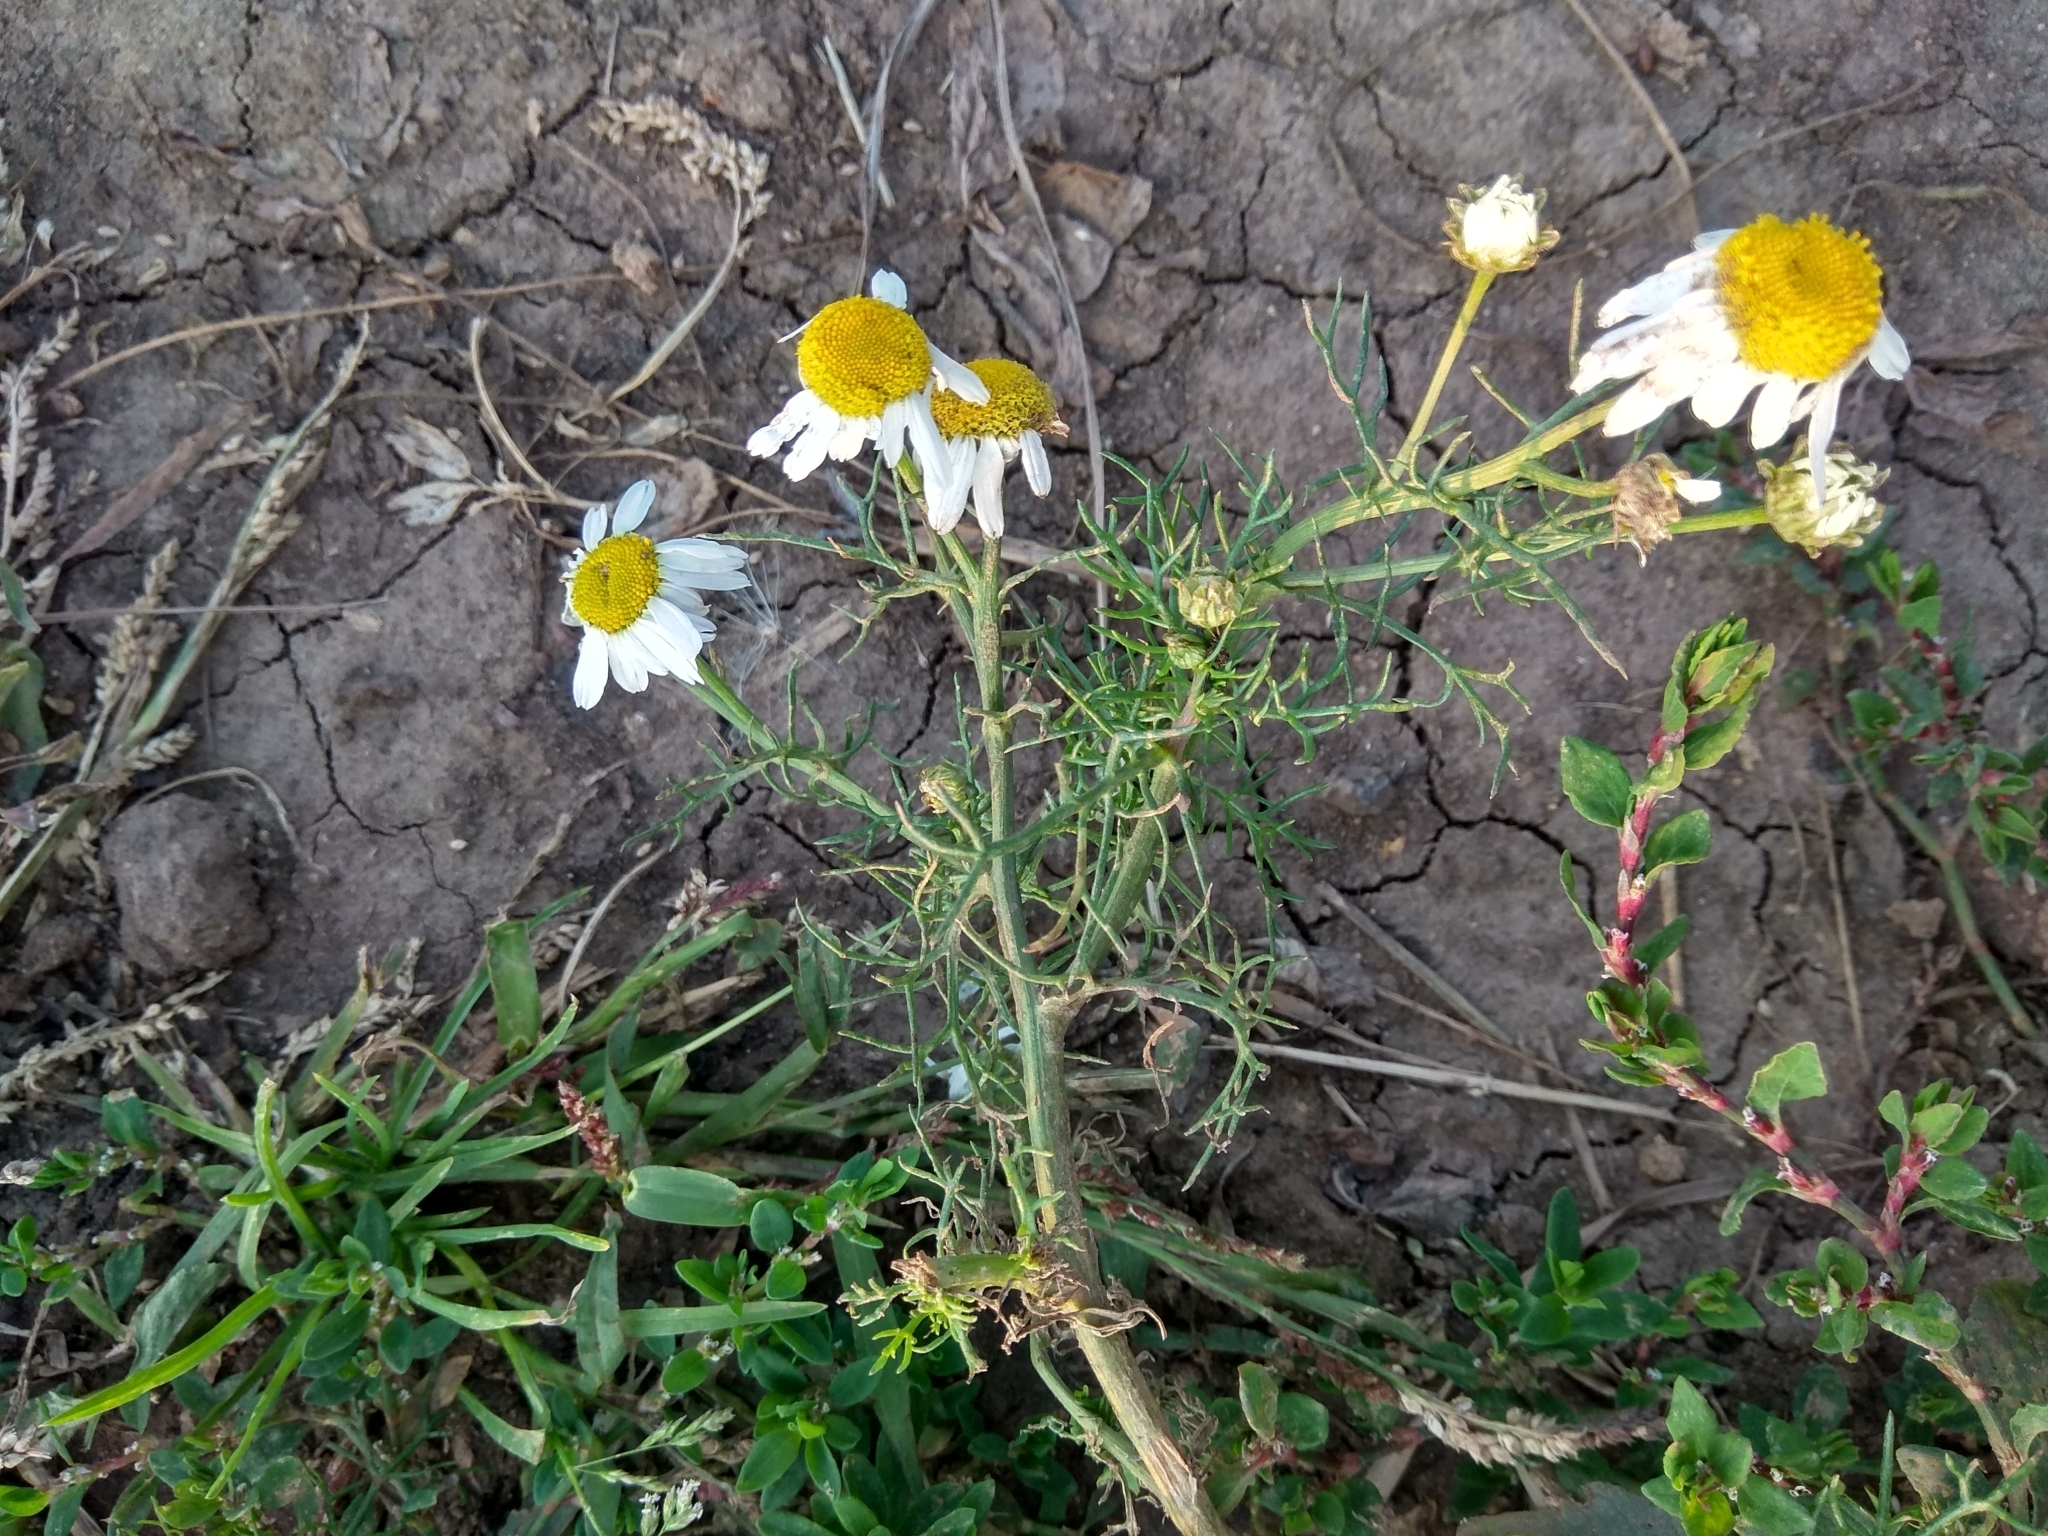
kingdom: Plantae
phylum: Tracheophyta
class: Magnoliopsida
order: Asterales
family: Asteraceae
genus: Tripleurospermum
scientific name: Tripleurospermum inodorum
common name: Scentless mayweed
